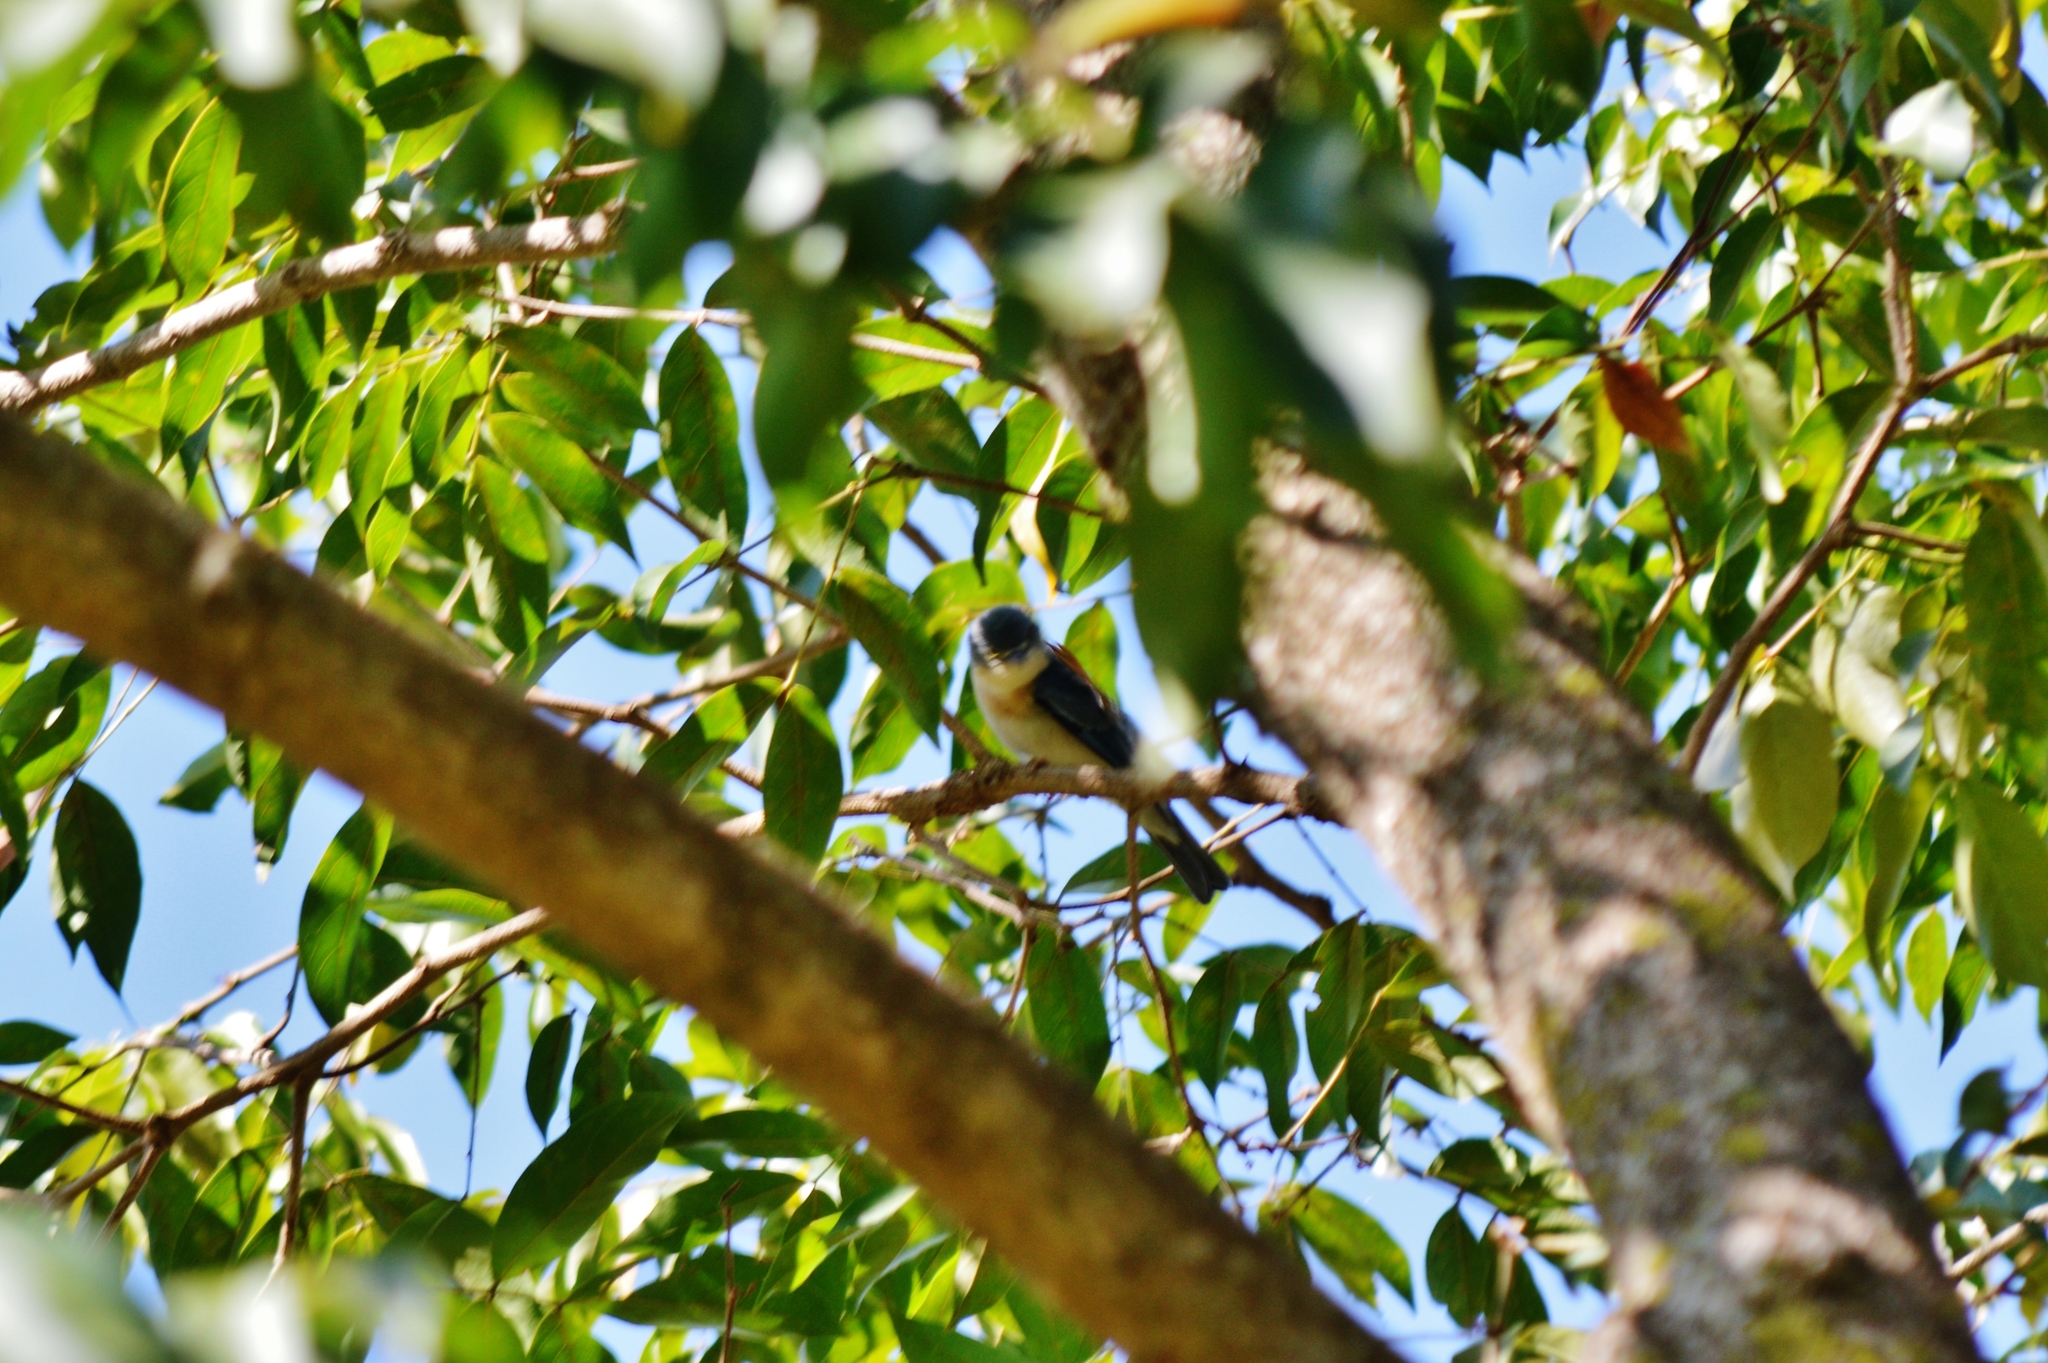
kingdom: Animalia
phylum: Chordata
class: Aves
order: Passeriformes
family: Thraupidae
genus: Nemosia
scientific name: Nemosia pileata
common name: Hooded tanager
